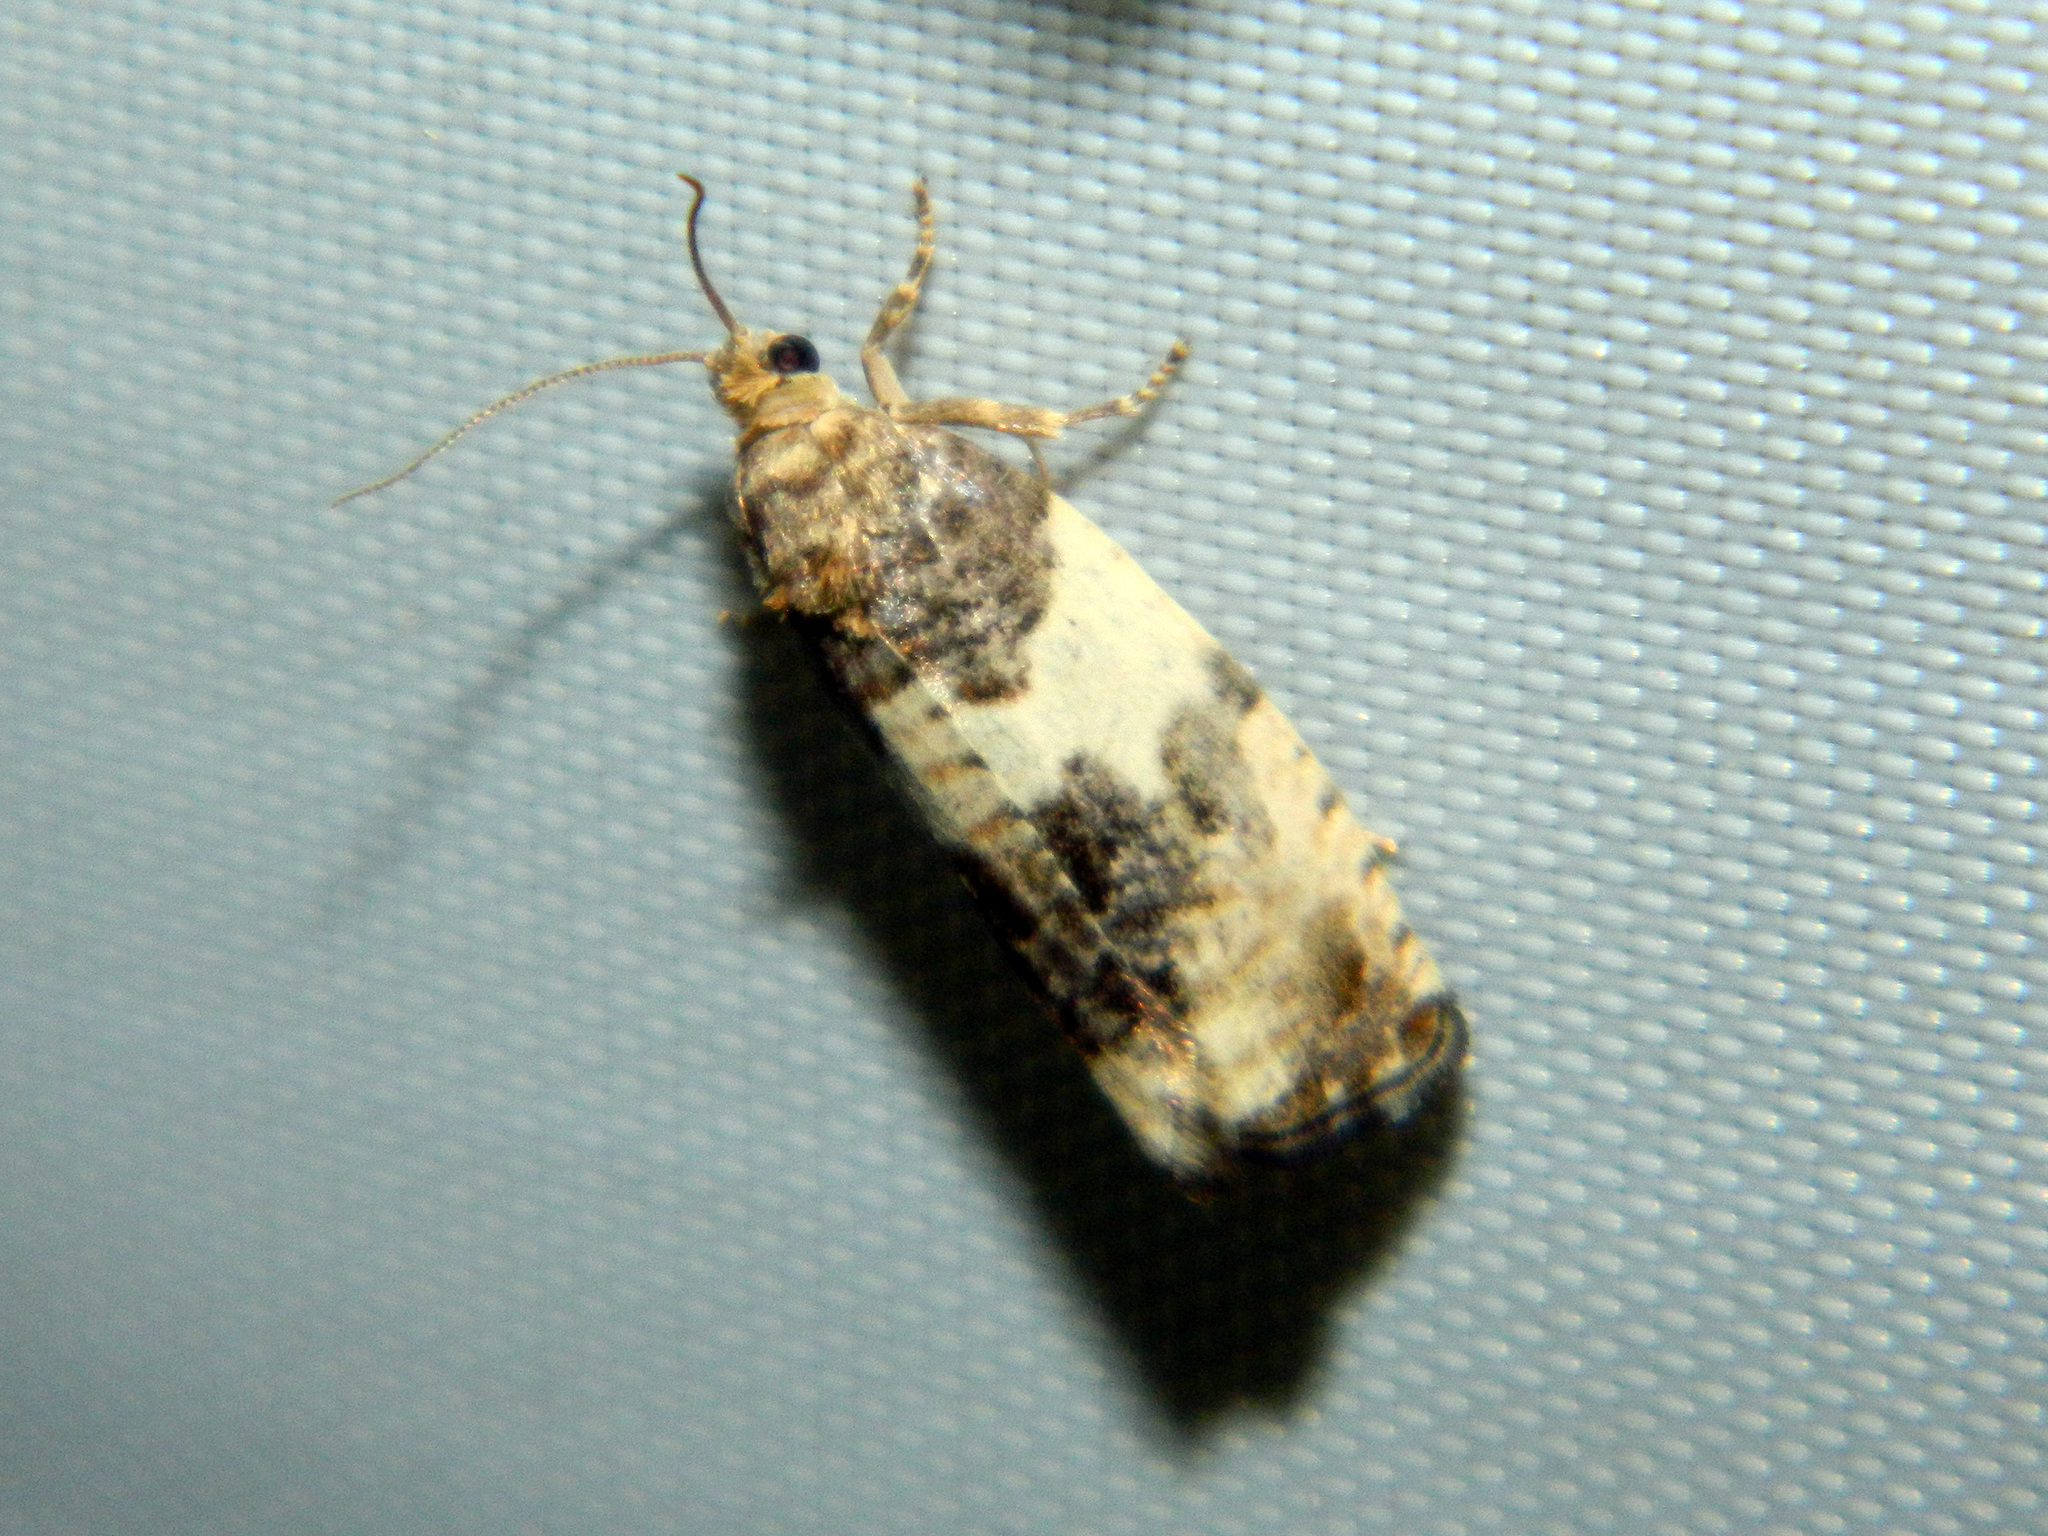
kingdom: Animalia
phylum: Arthropoda
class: Insecta
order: Lepidoptera
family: Tortricidae
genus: Pseudosciaphila
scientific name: Pseudosciaphila duplex
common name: Poplar leafroller moth
